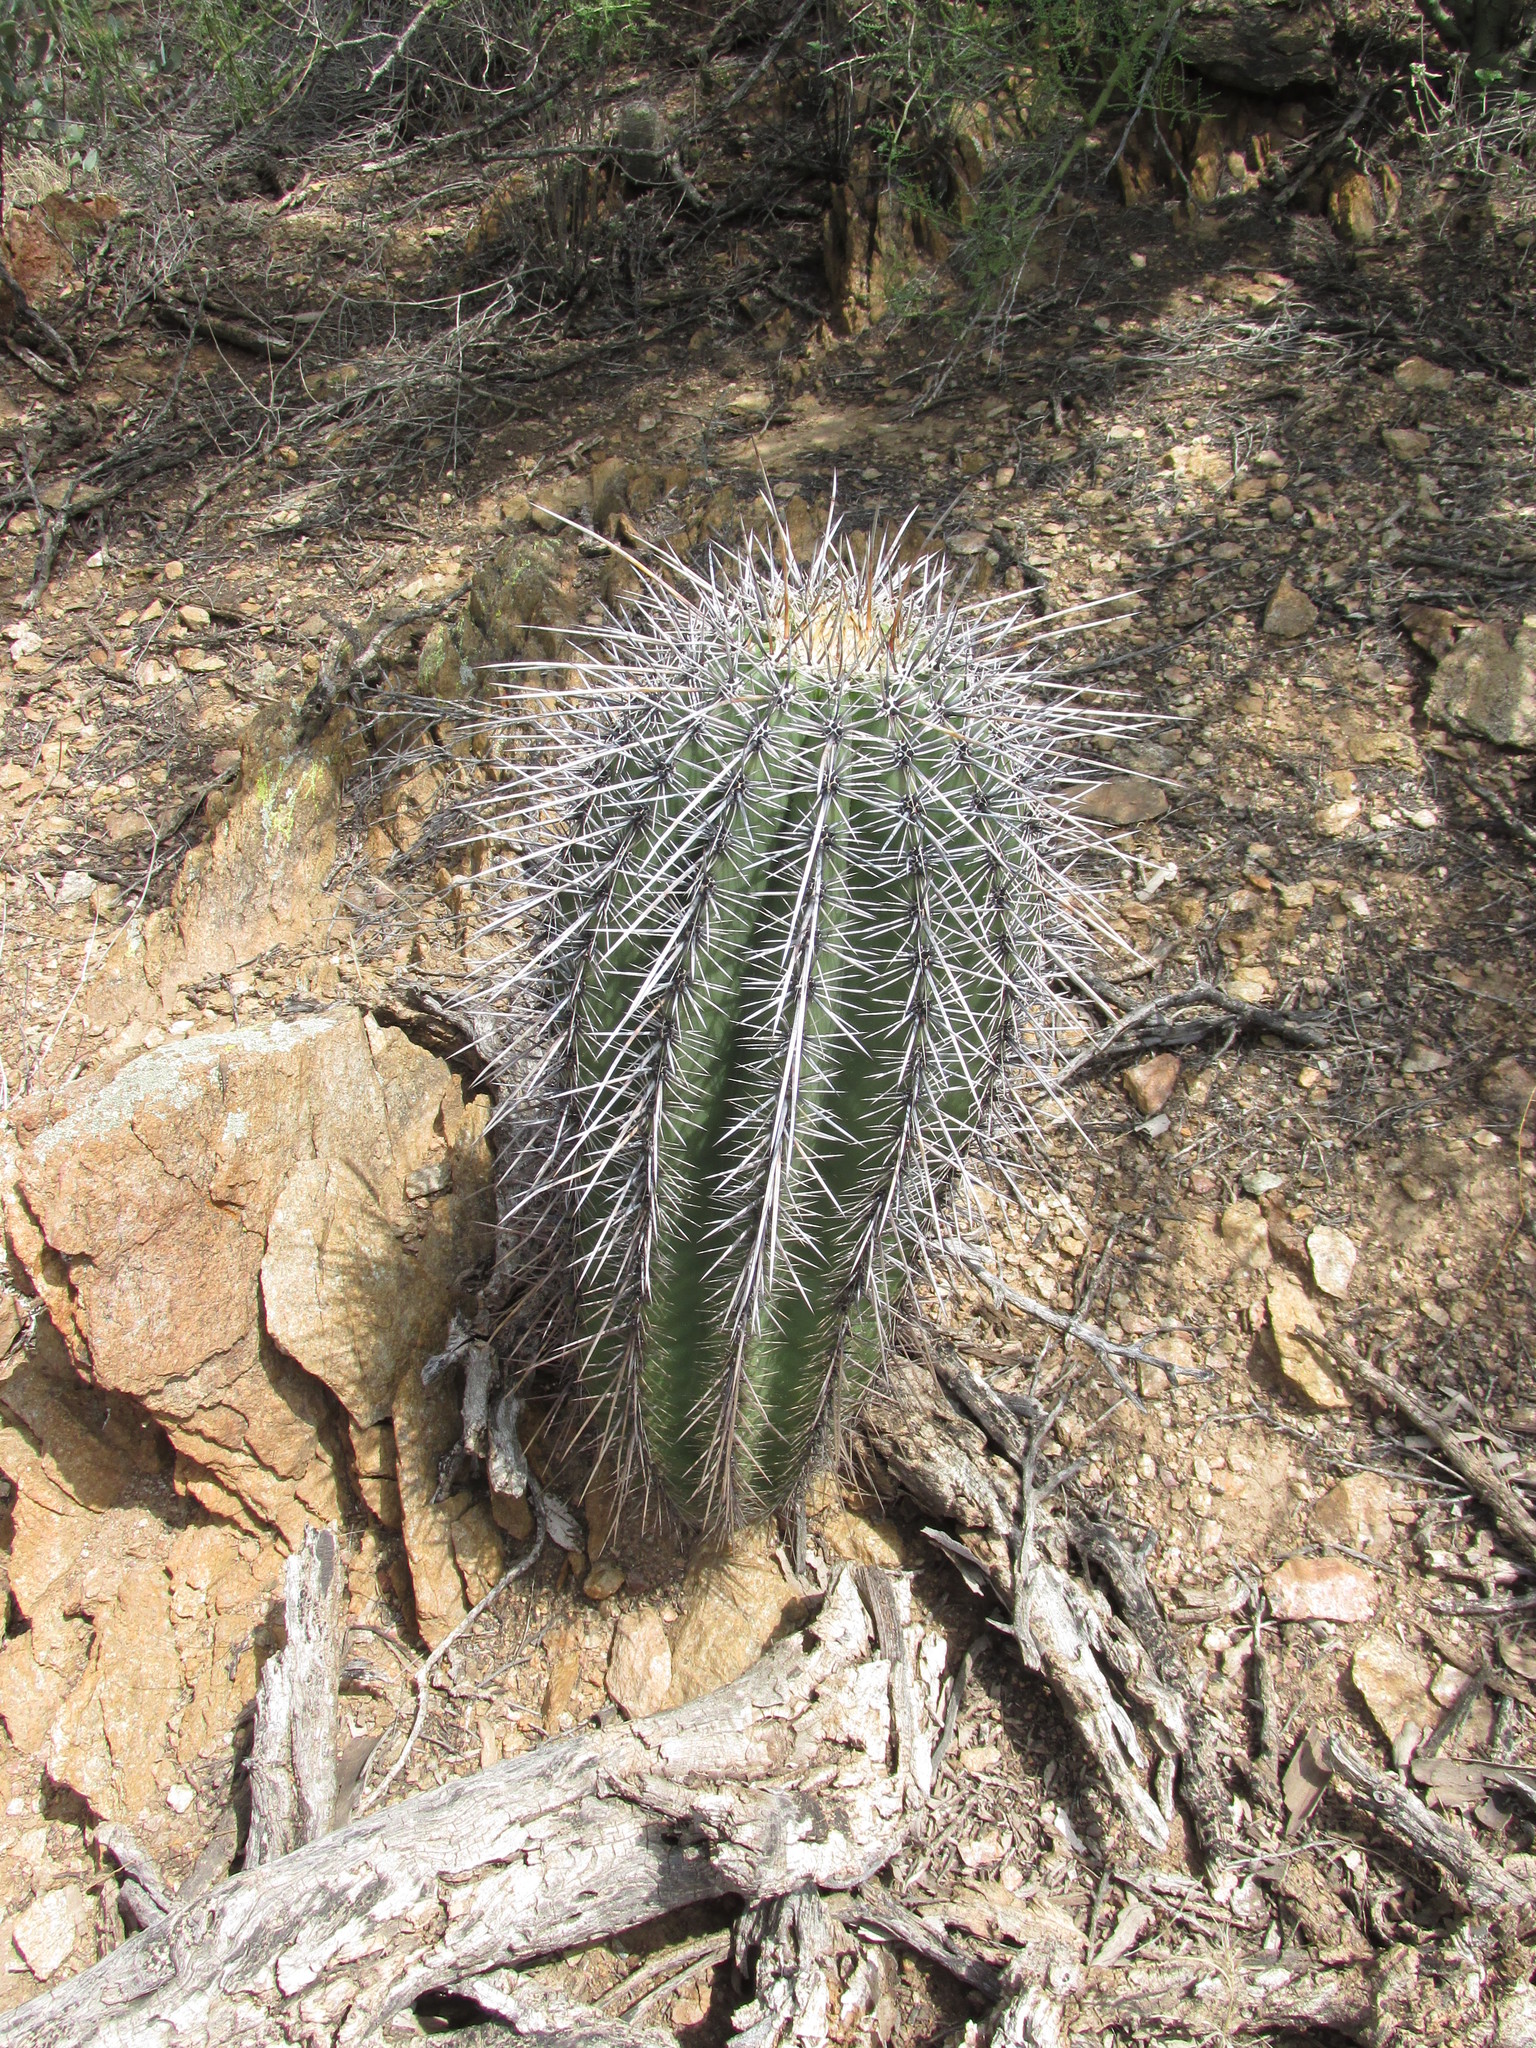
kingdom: Plantae
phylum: Tracheophyta
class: Magnoliopsida
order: Caryophyllales
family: Cactaceae
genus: Carnegiea
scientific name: Carnegiea gigantea
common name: Saguaro
